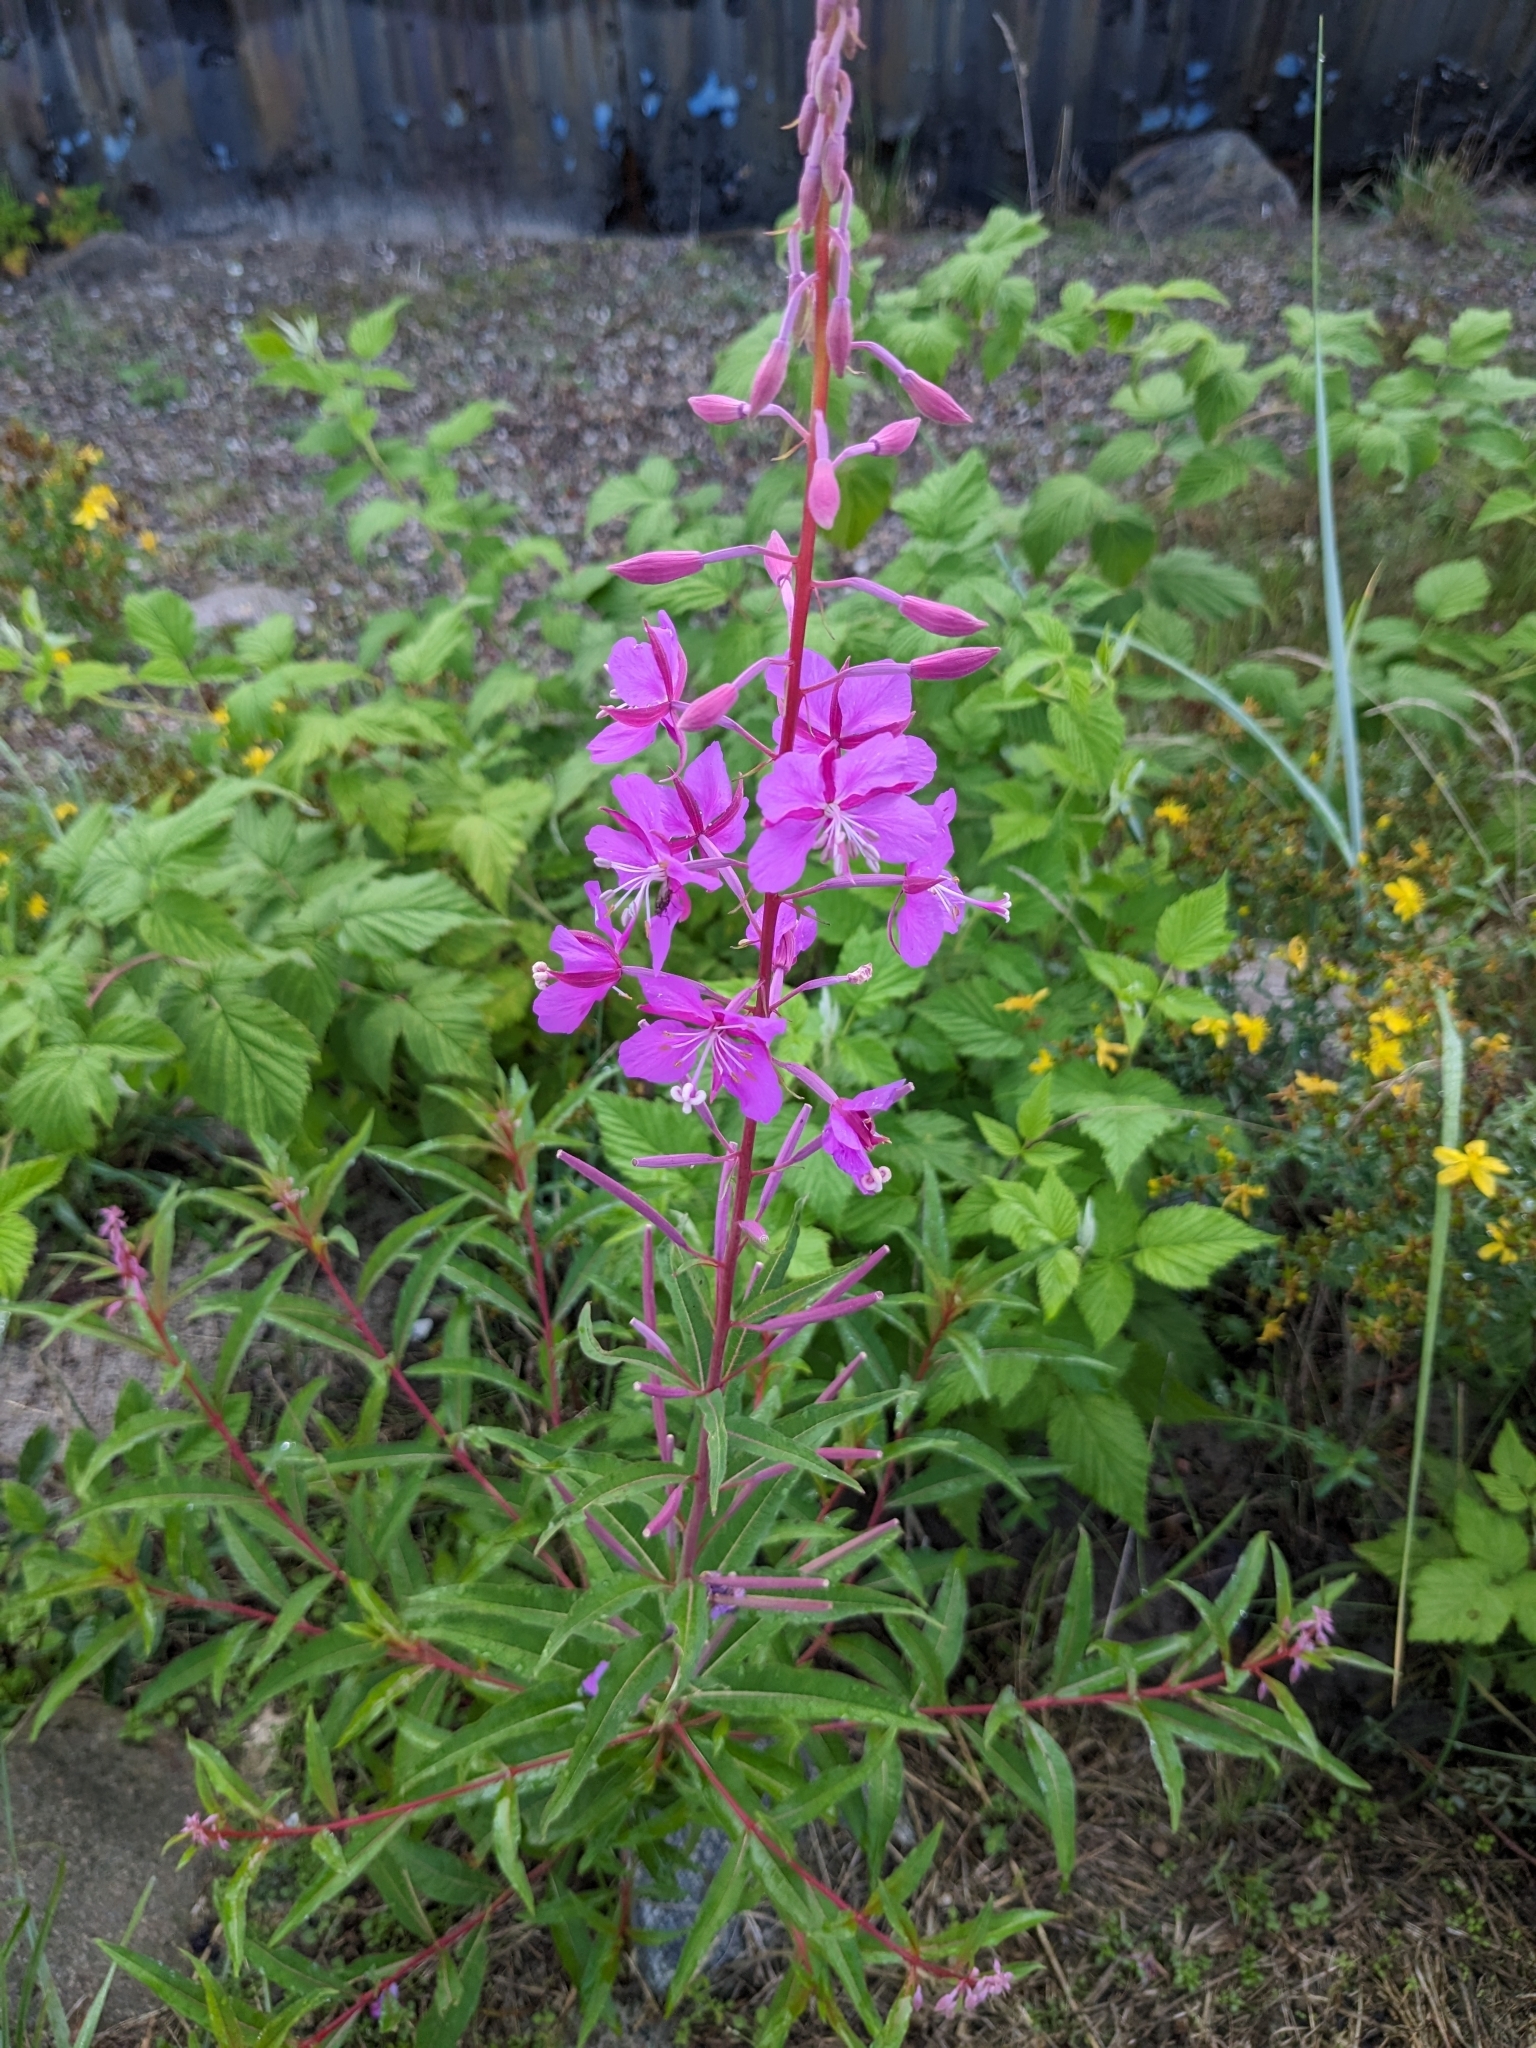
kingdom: Plantae
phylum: Tracheophyta
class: Magnoliopsida
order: Myrtales
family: Onagraceae
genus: Chamaenerion
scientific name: Chamaenerion angustifolium
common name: Fireweed
